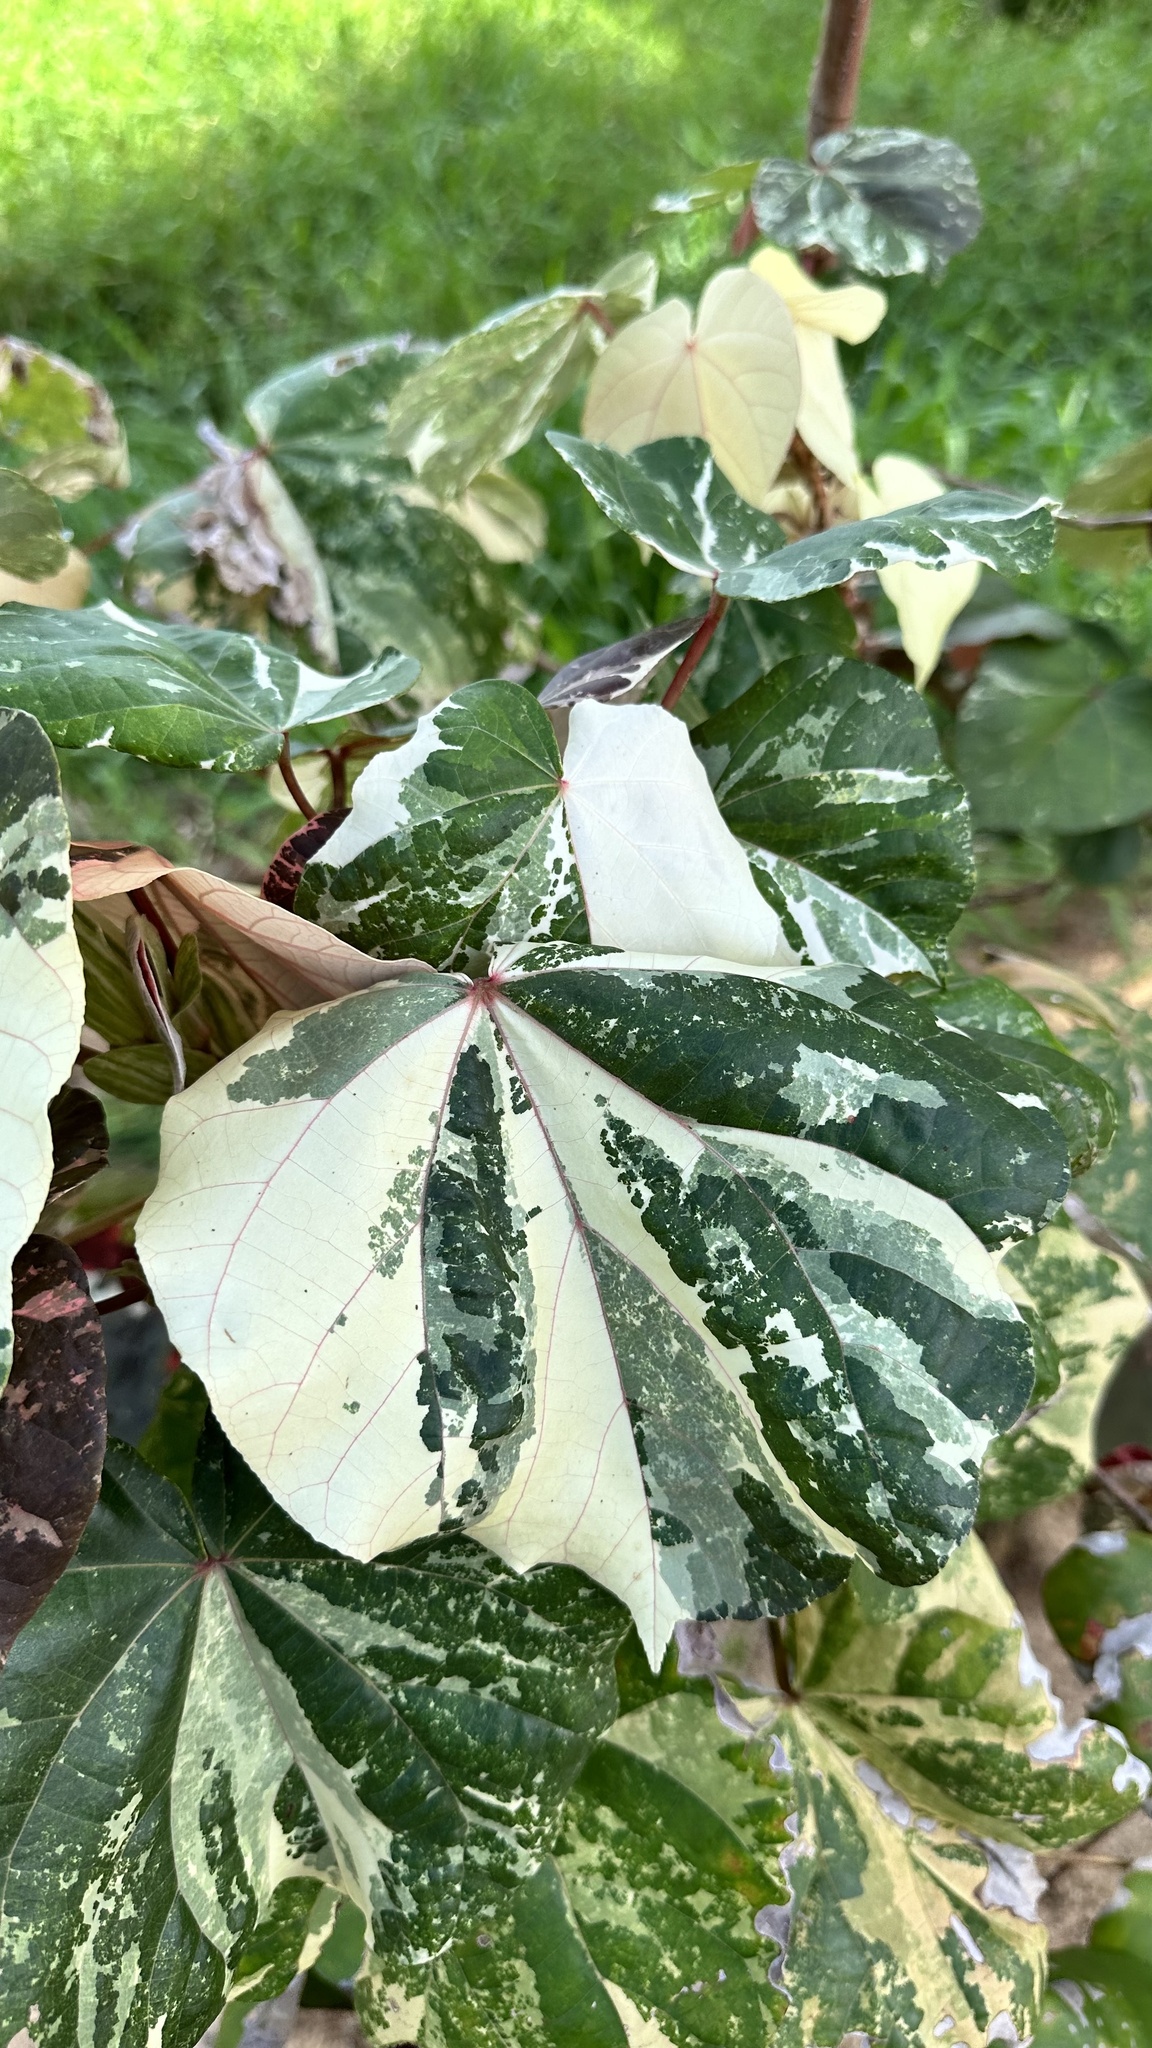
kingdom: Plantae
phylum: Tracheophyta
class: Magnoliopsida
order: Malvales
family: Malvaceae
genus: Talipariti
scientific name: Talipariti tiliaceum
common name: Sea hibiscus
